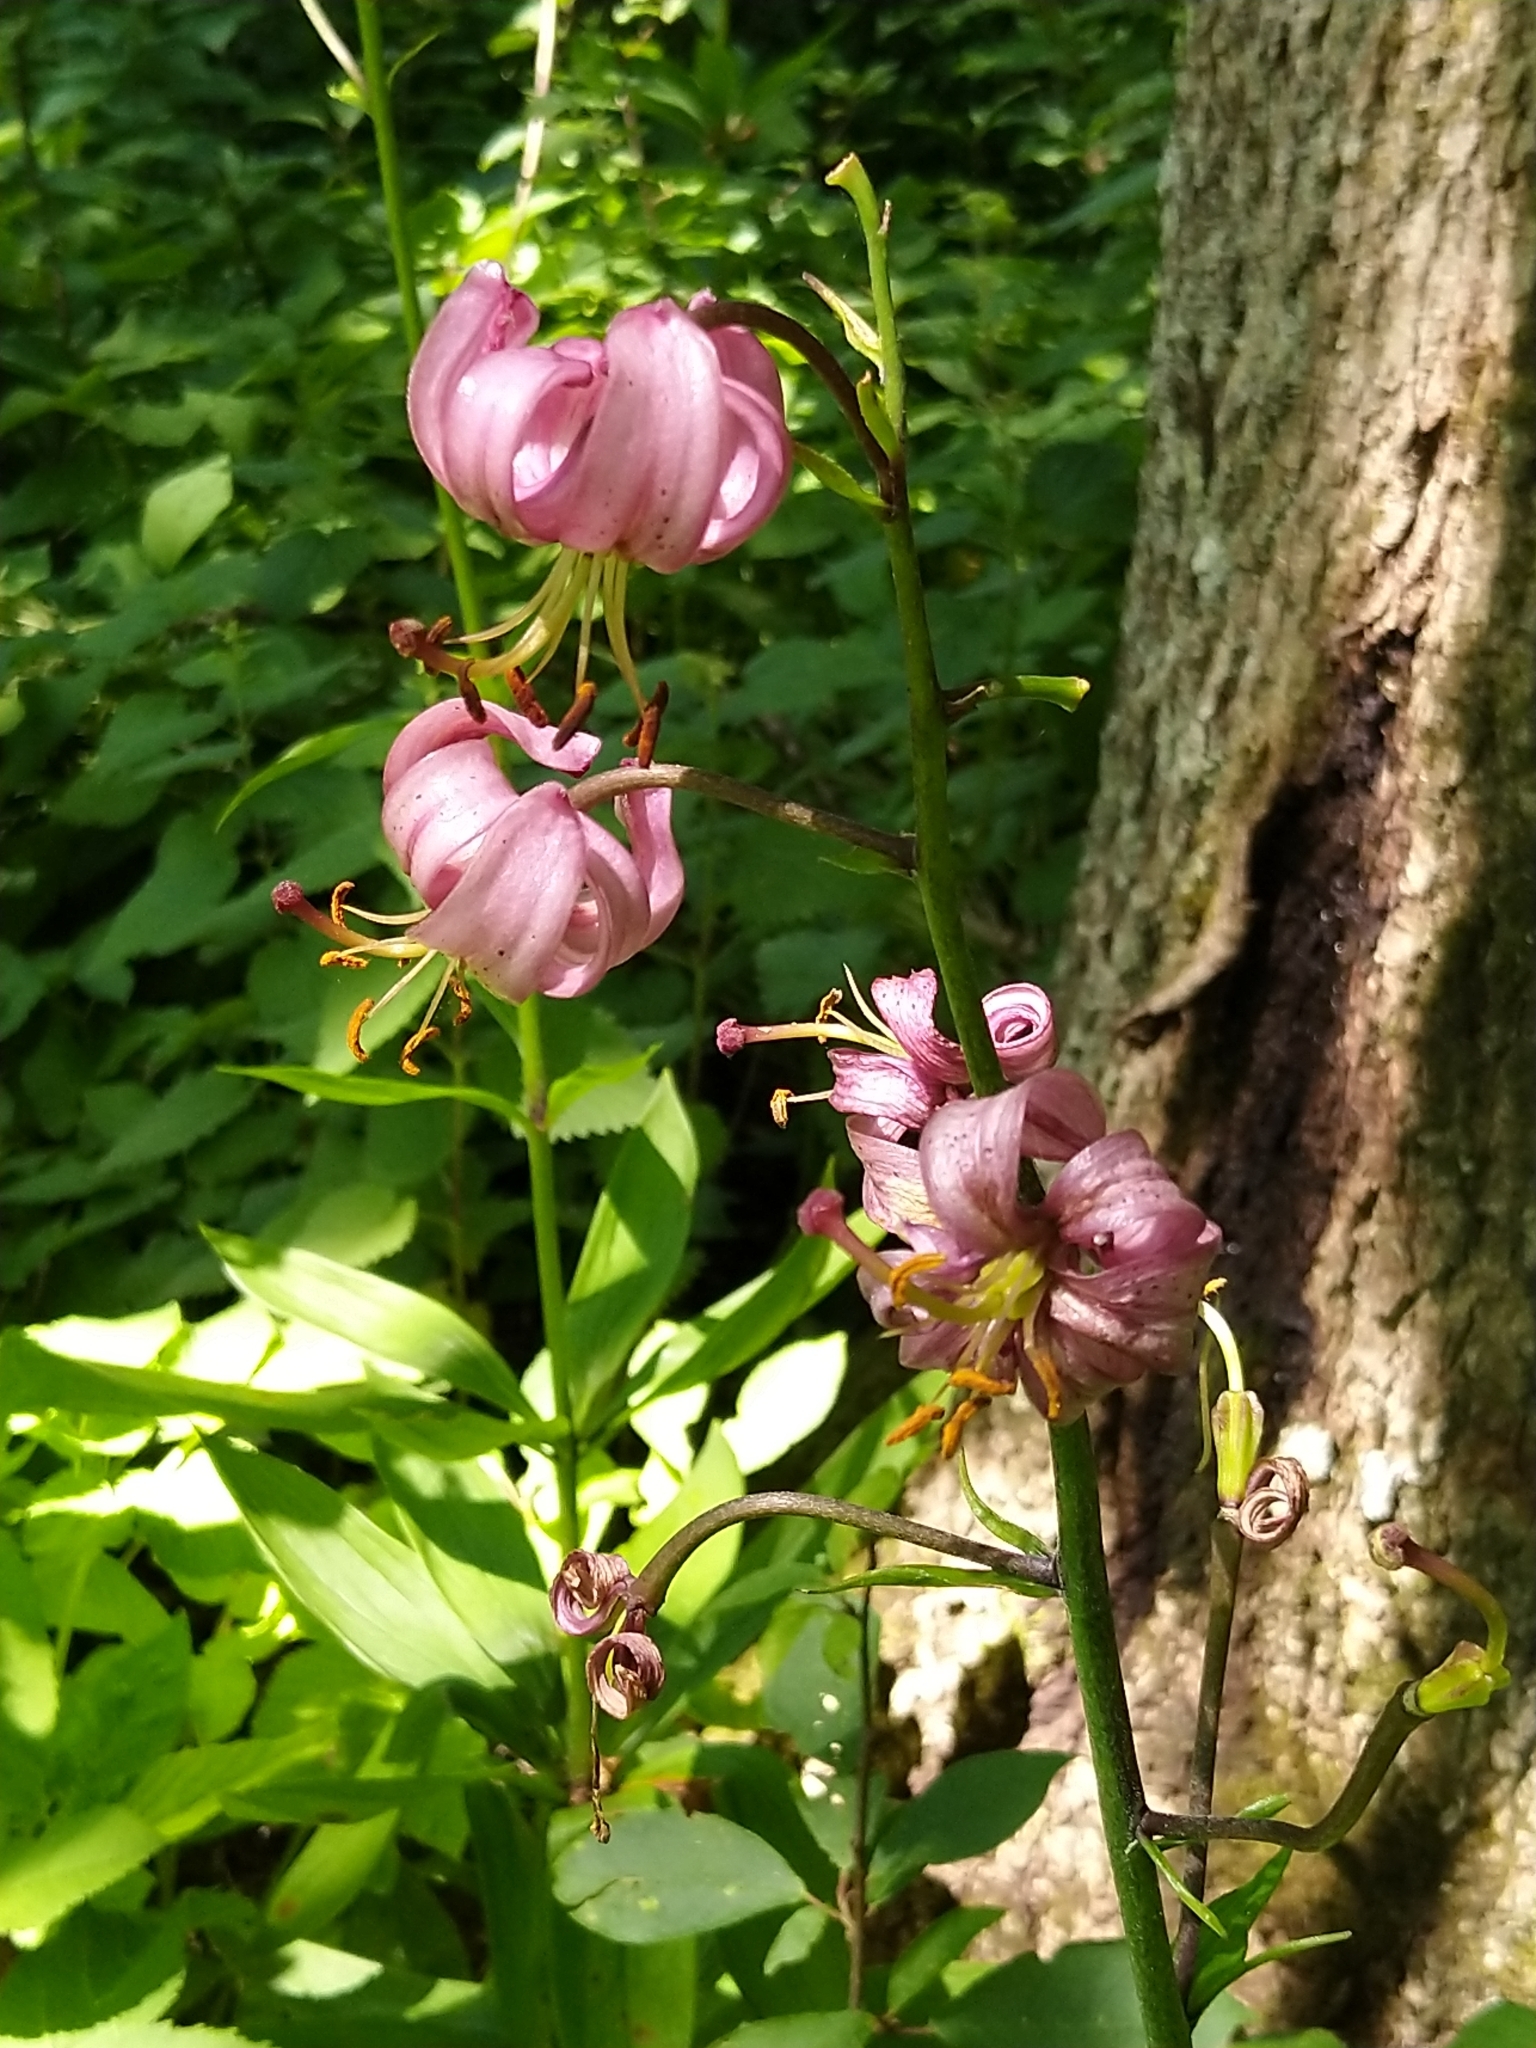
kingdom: Plantae
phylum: Tracheophyta
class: Liliopsida
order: Liliales
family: Liliaceae
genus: Lilium
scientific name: Lilium martagon
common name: Martagon lily
